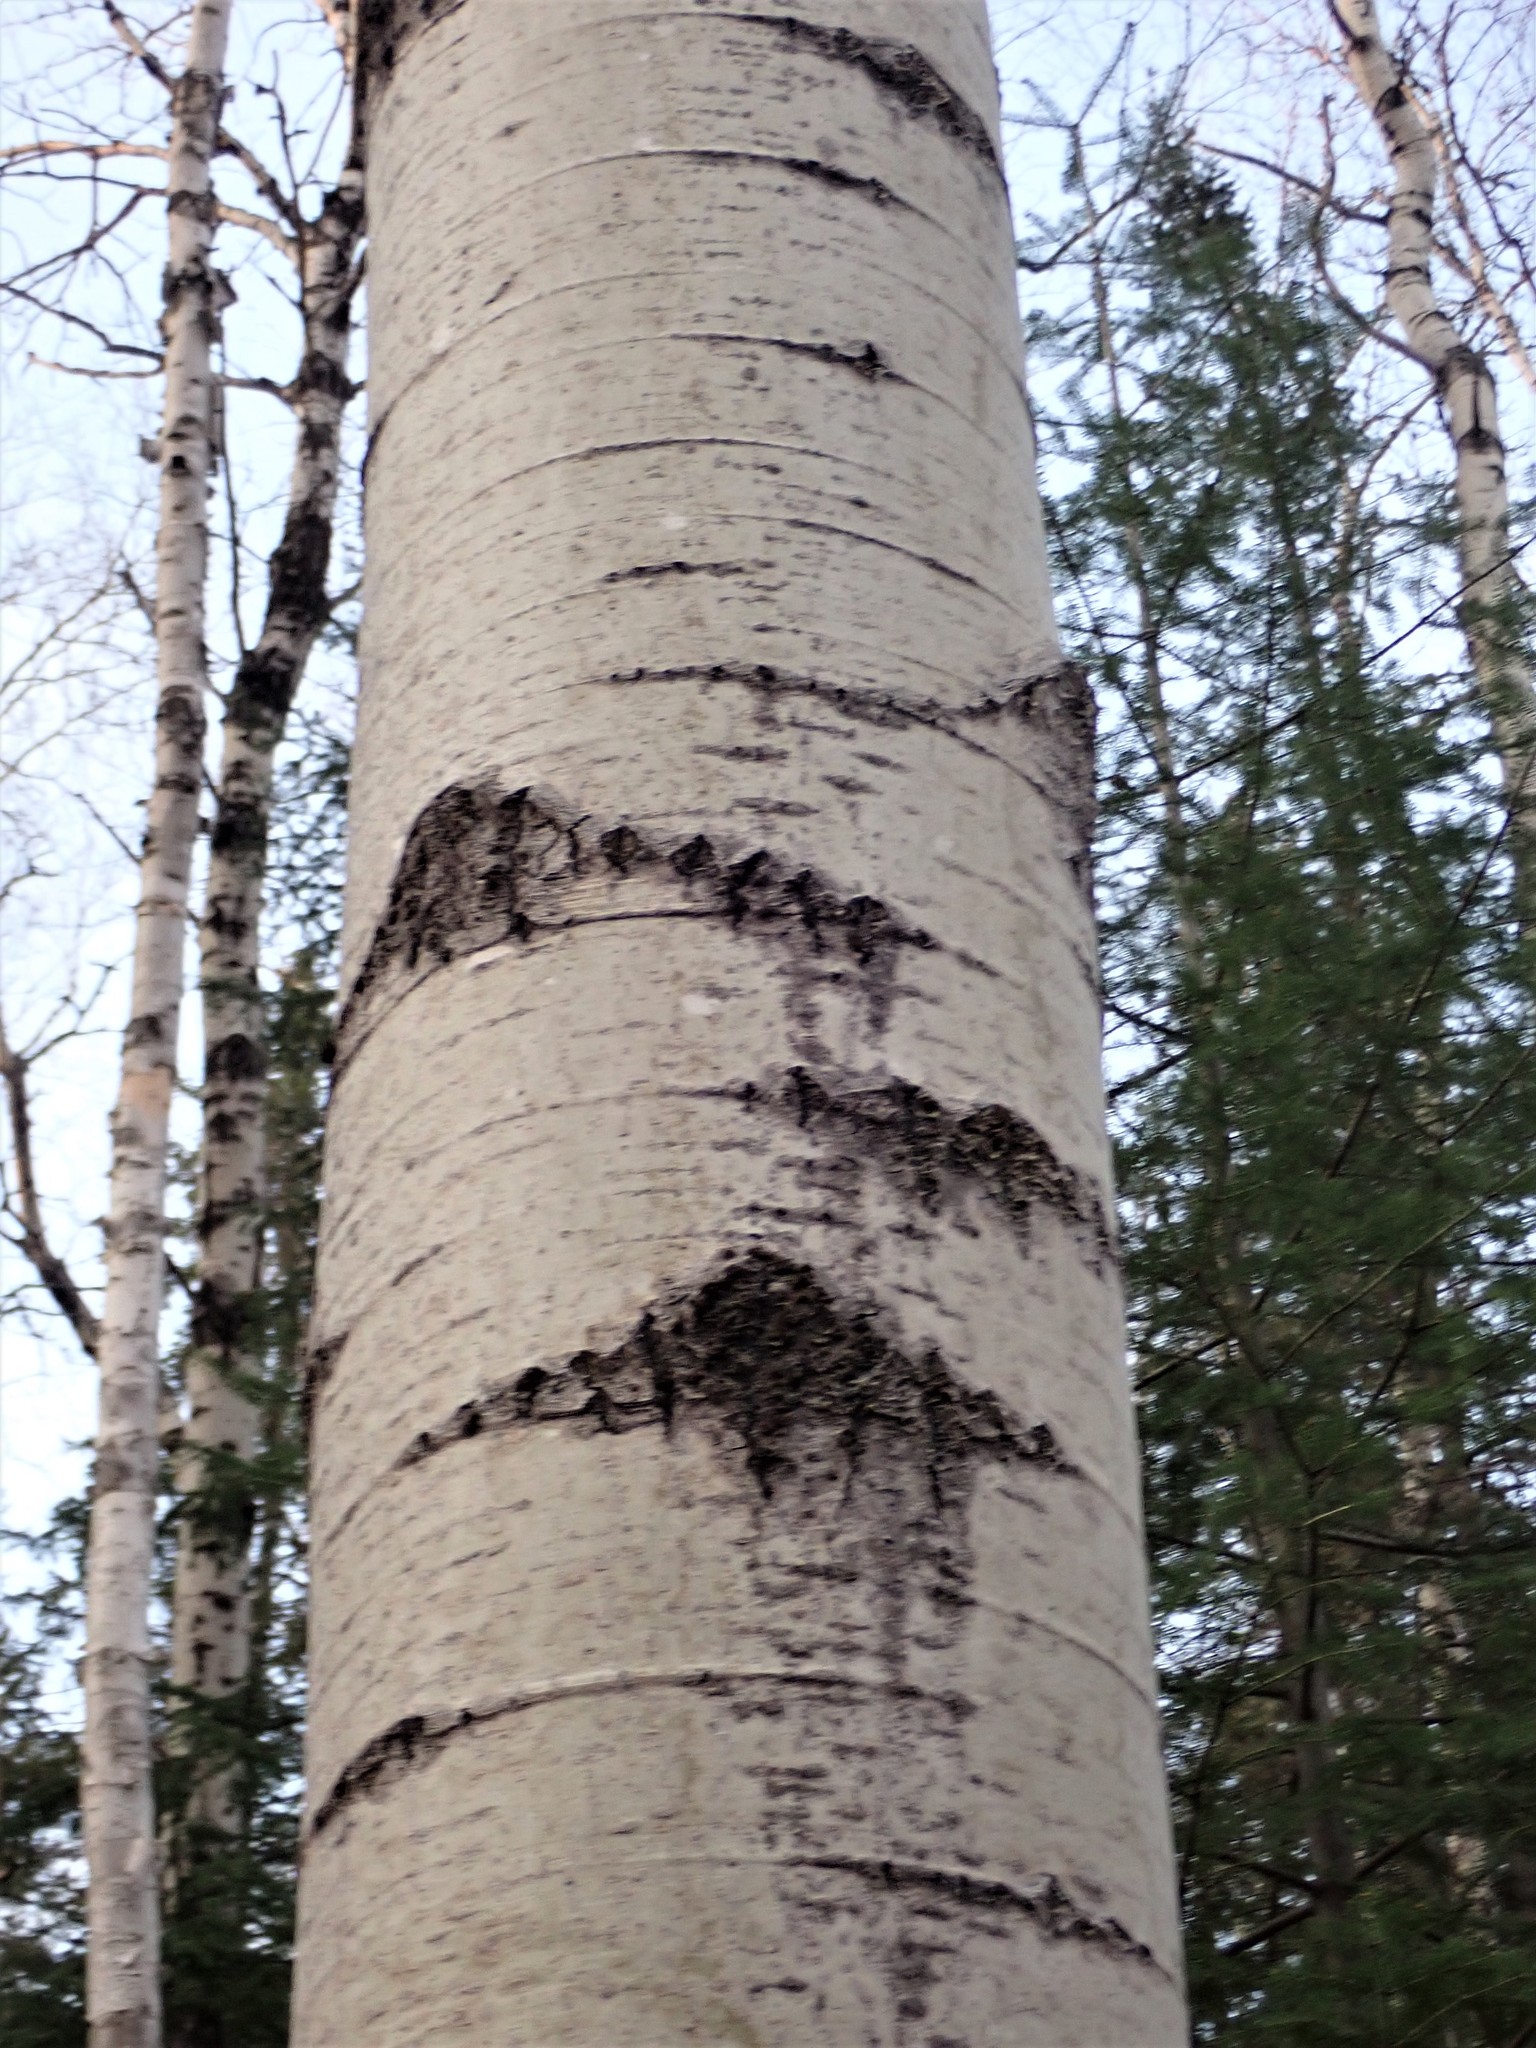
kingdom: Plantae
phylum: Tracheophyta
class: Magnoliopsida
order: Malpighiales
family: Salicaceae
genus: Populus
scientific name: Populus tremuloides
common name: Quaking aspen
